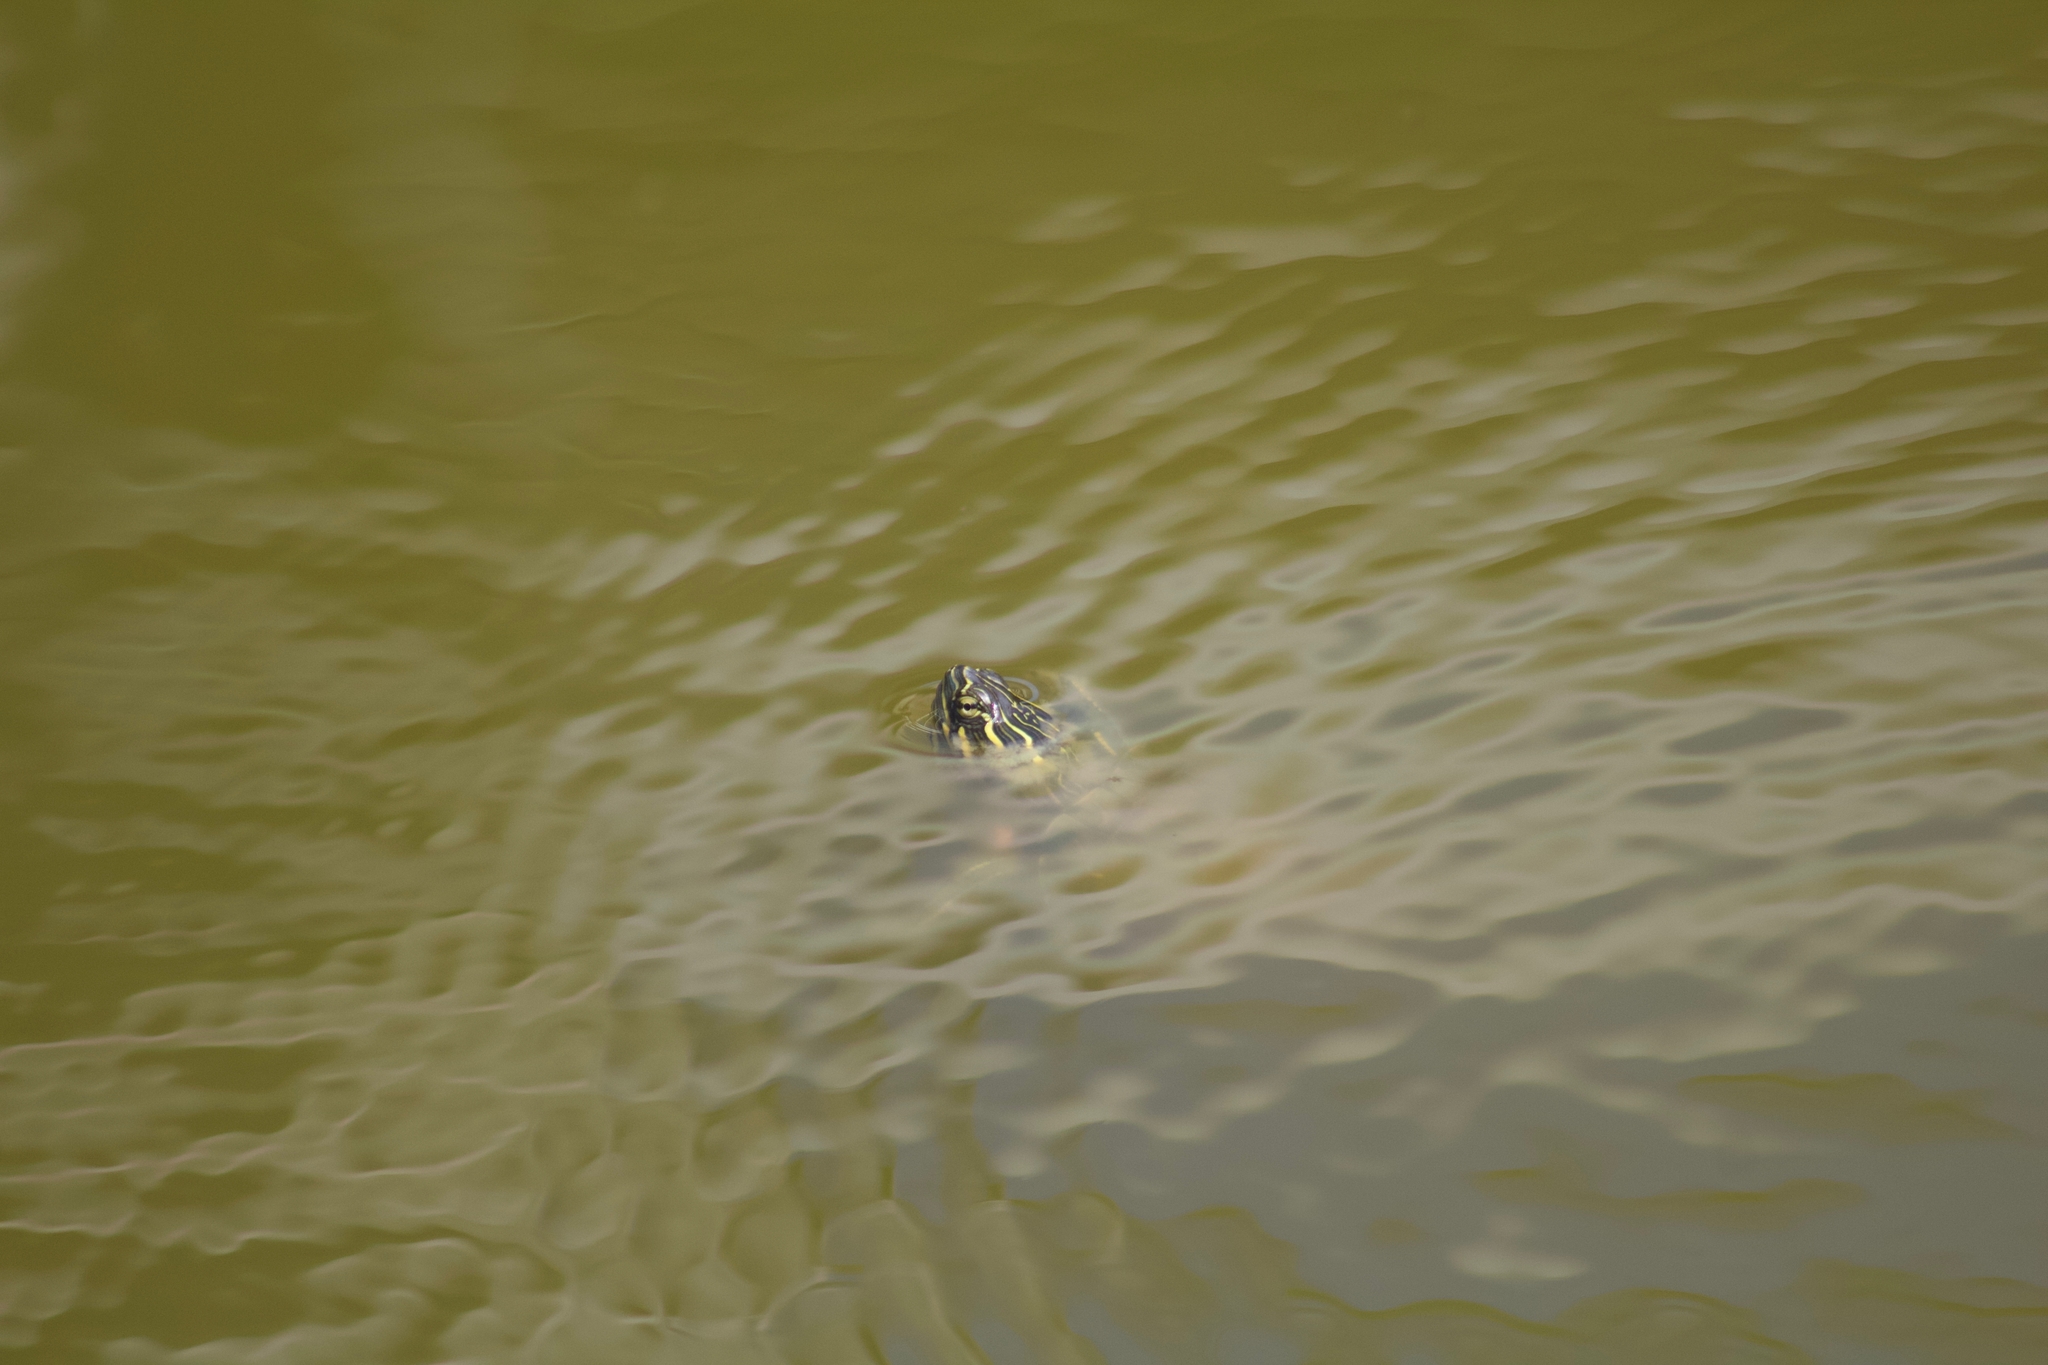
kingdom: Animalia
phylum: Chordata
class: Testudines
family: Emydidae
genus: Chrysemys
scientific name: Chrysemys picta
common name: Painted turtle
